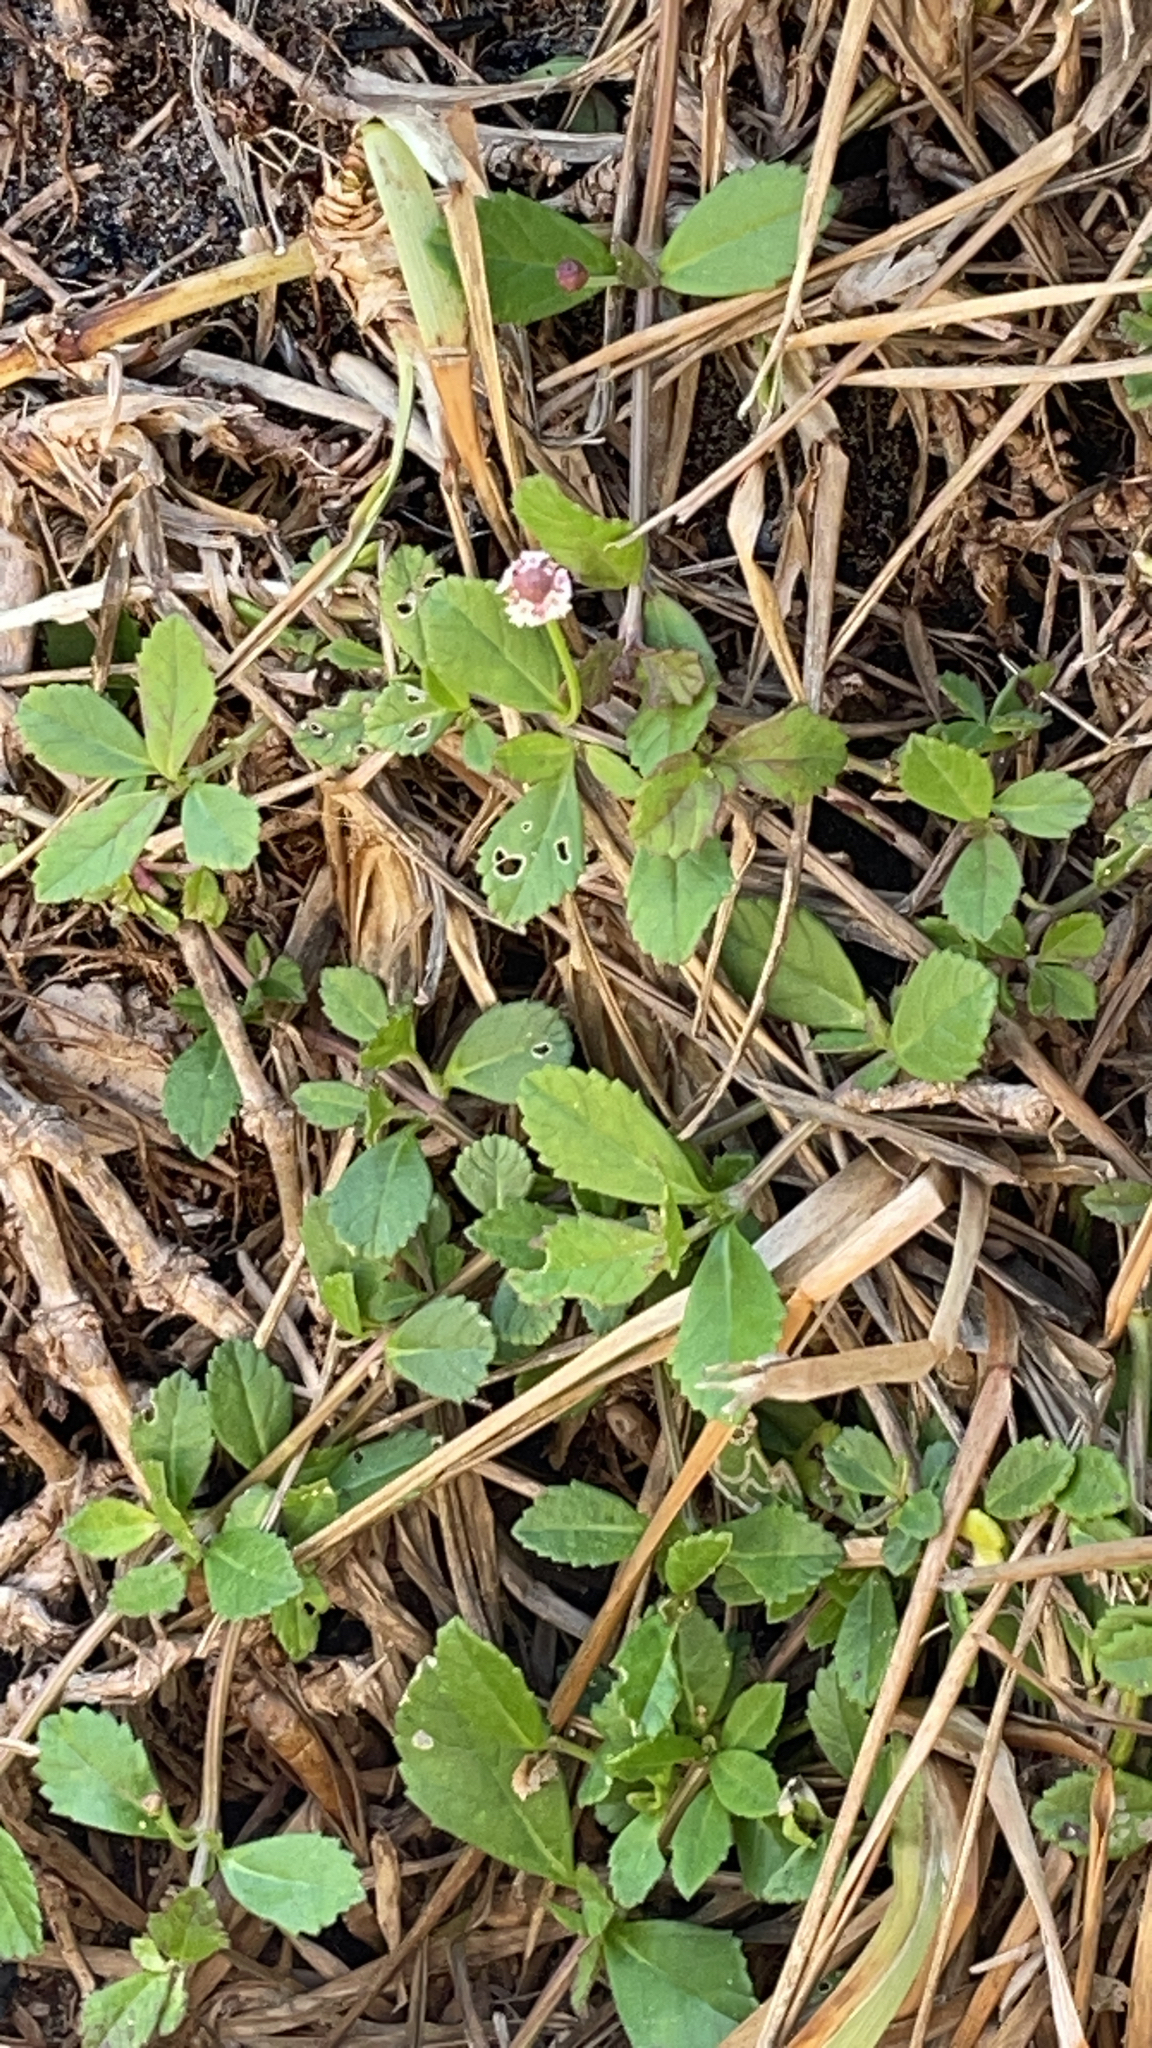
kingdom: Plantae
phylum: Tracheophyta
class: Magnoliopsida
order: Lamiales
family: Verbenaceae
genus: Phyla
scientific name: Phyla nodiflora
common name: Frogfruit
